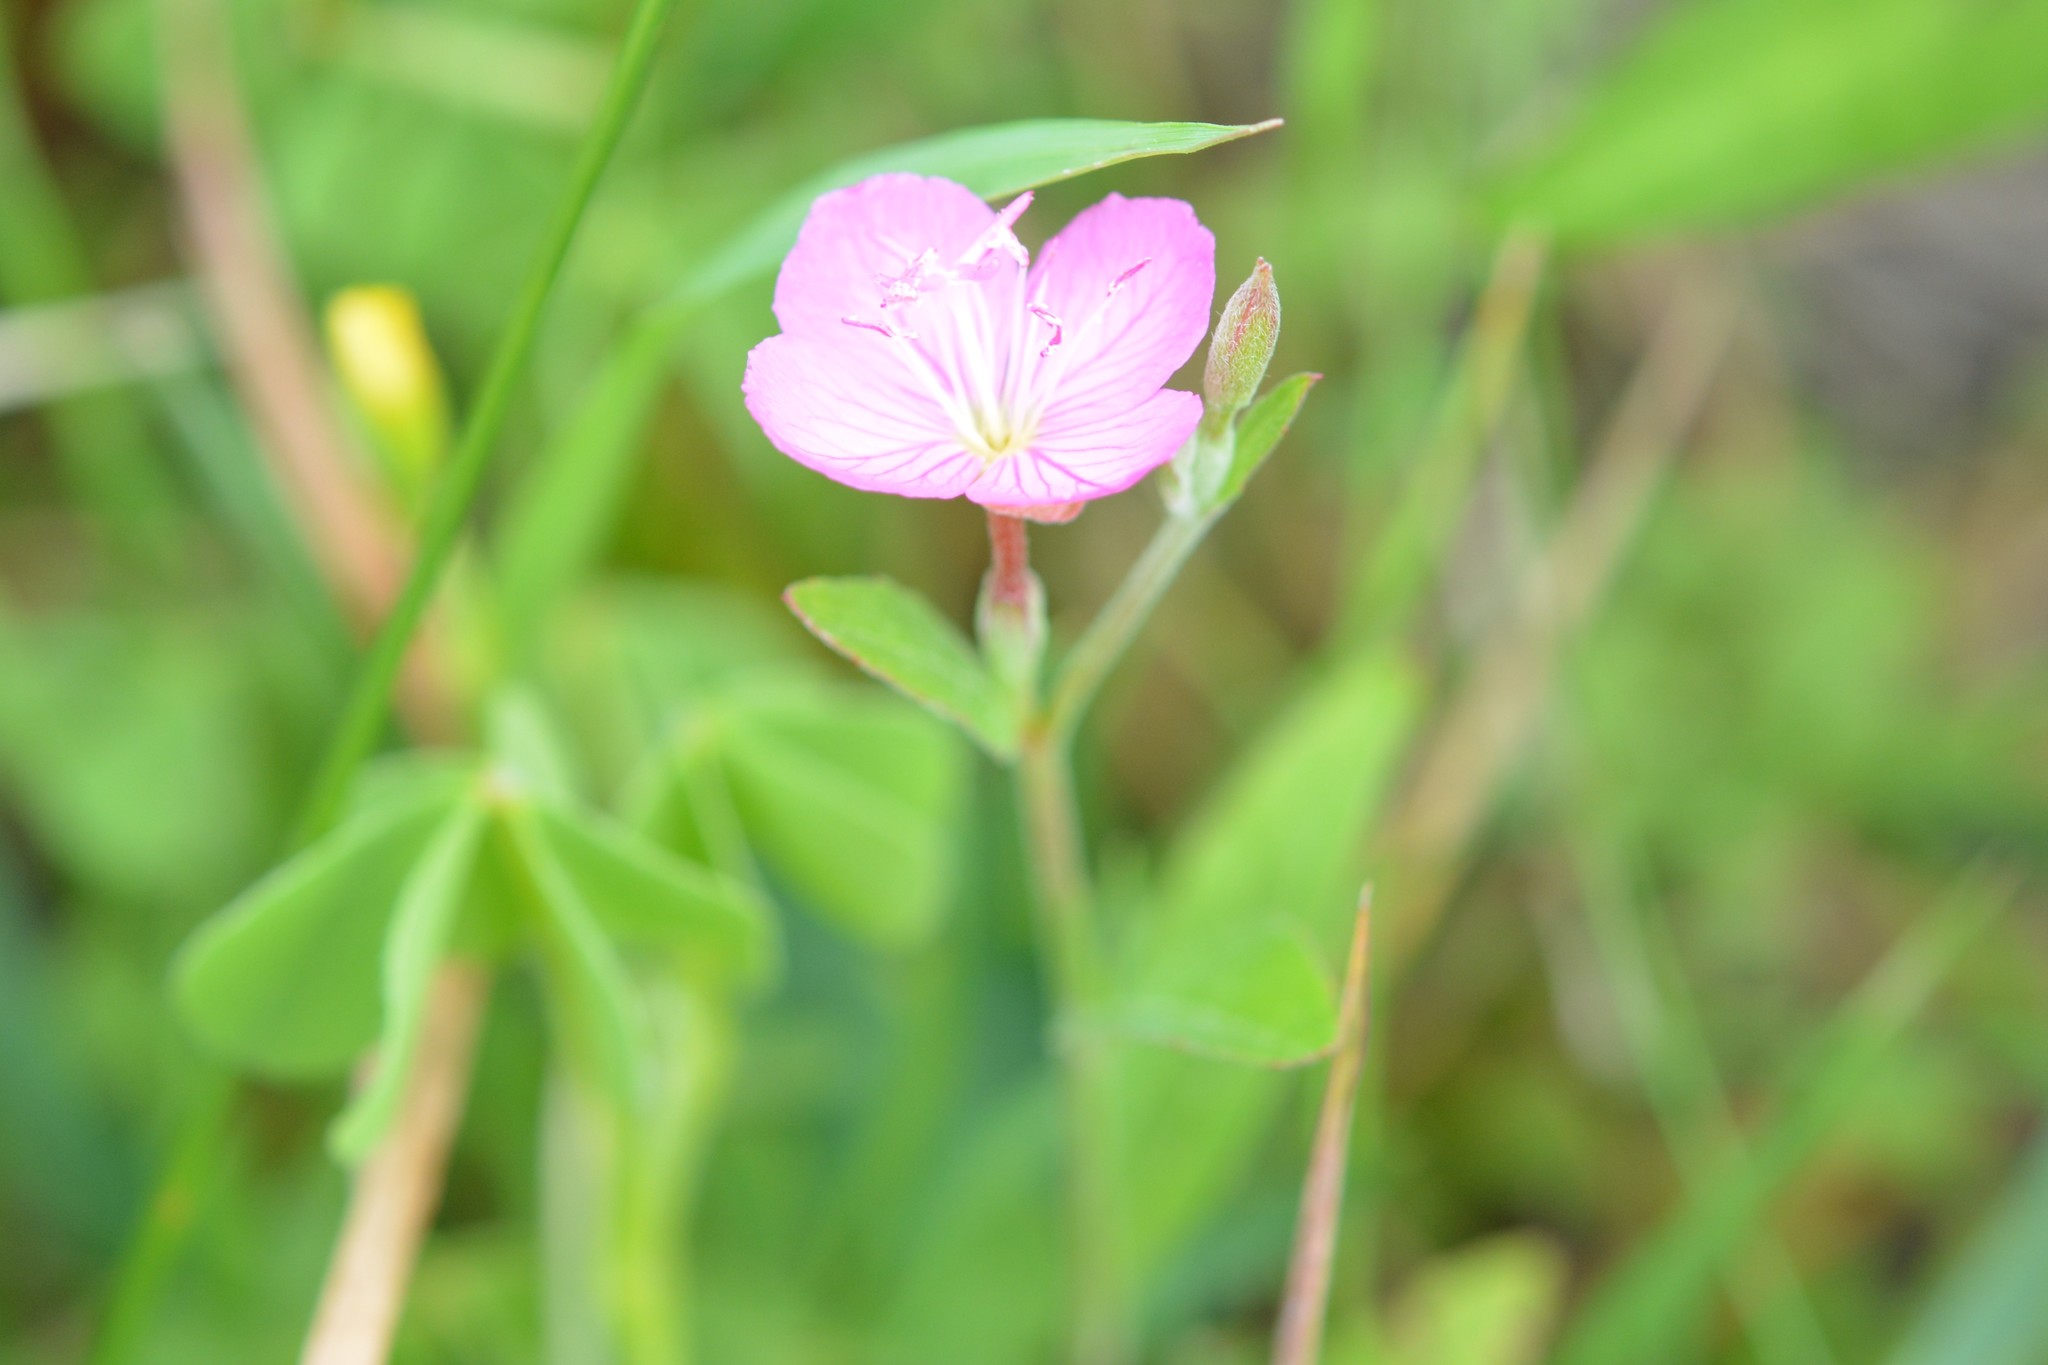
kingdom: Plantae
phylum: Tracheophyta
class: Magnoliopsida
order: Myrtales
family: Onagraceae
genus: Oenothera
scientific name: Oenothera rosea
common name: Rosy evening-primrose
